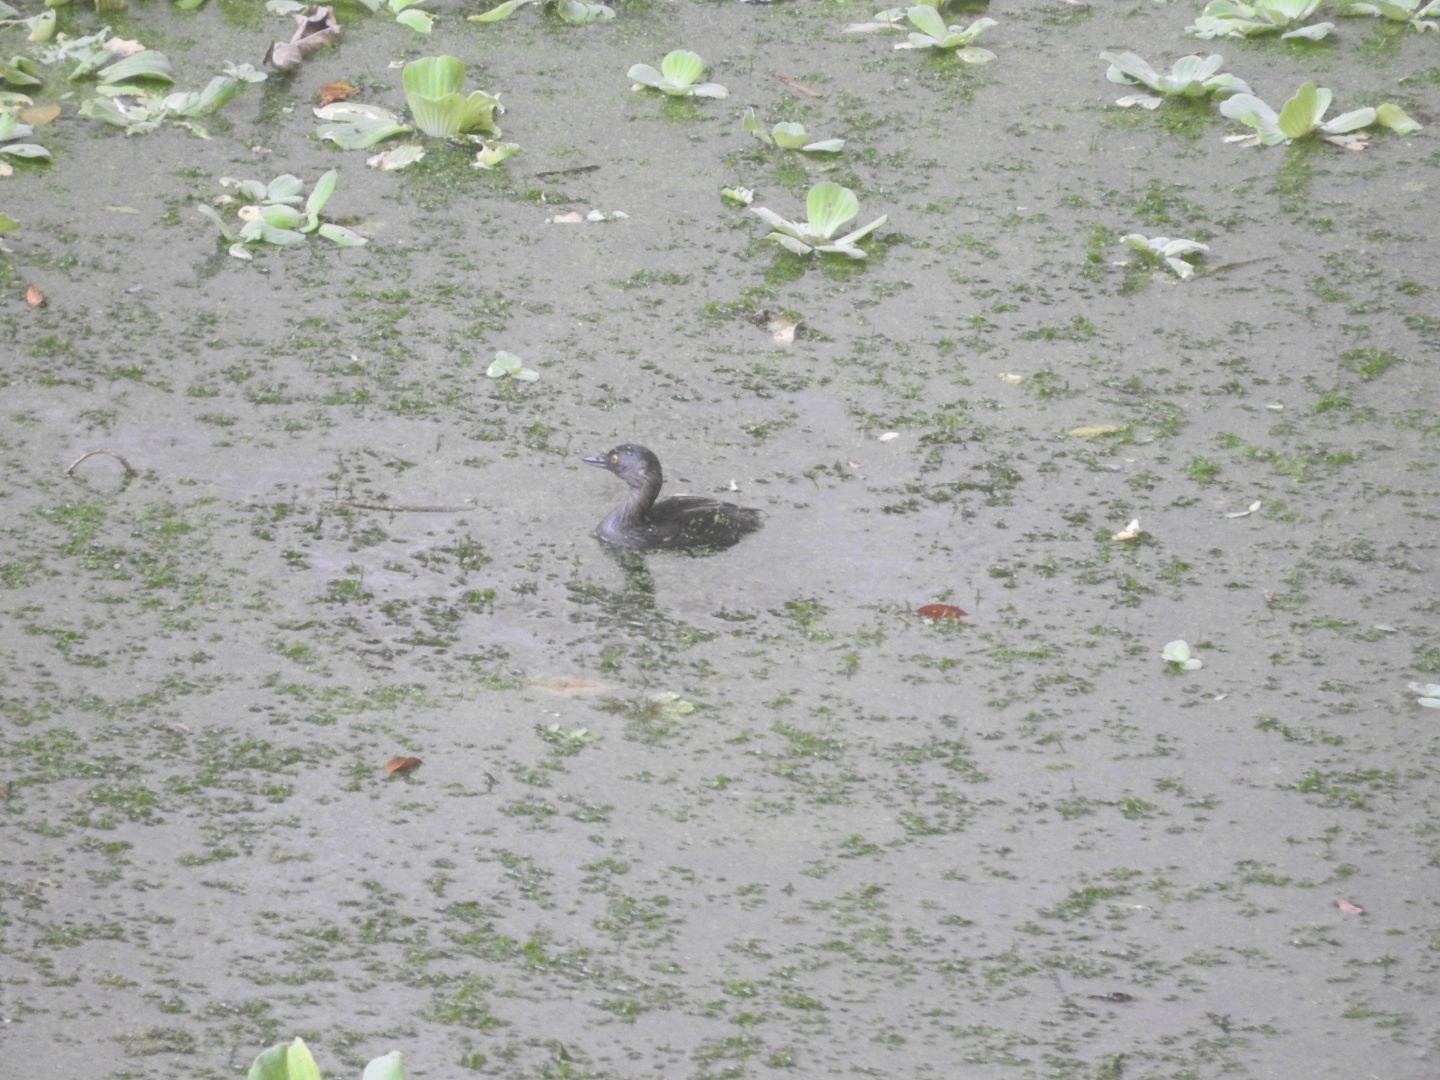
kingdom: Animalia
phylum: Chordata
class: Aves
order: Podicipediformes
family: Podicipedidae
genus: Tachybaptus
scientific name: Tachybaptus dominicus
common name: Least grebe
